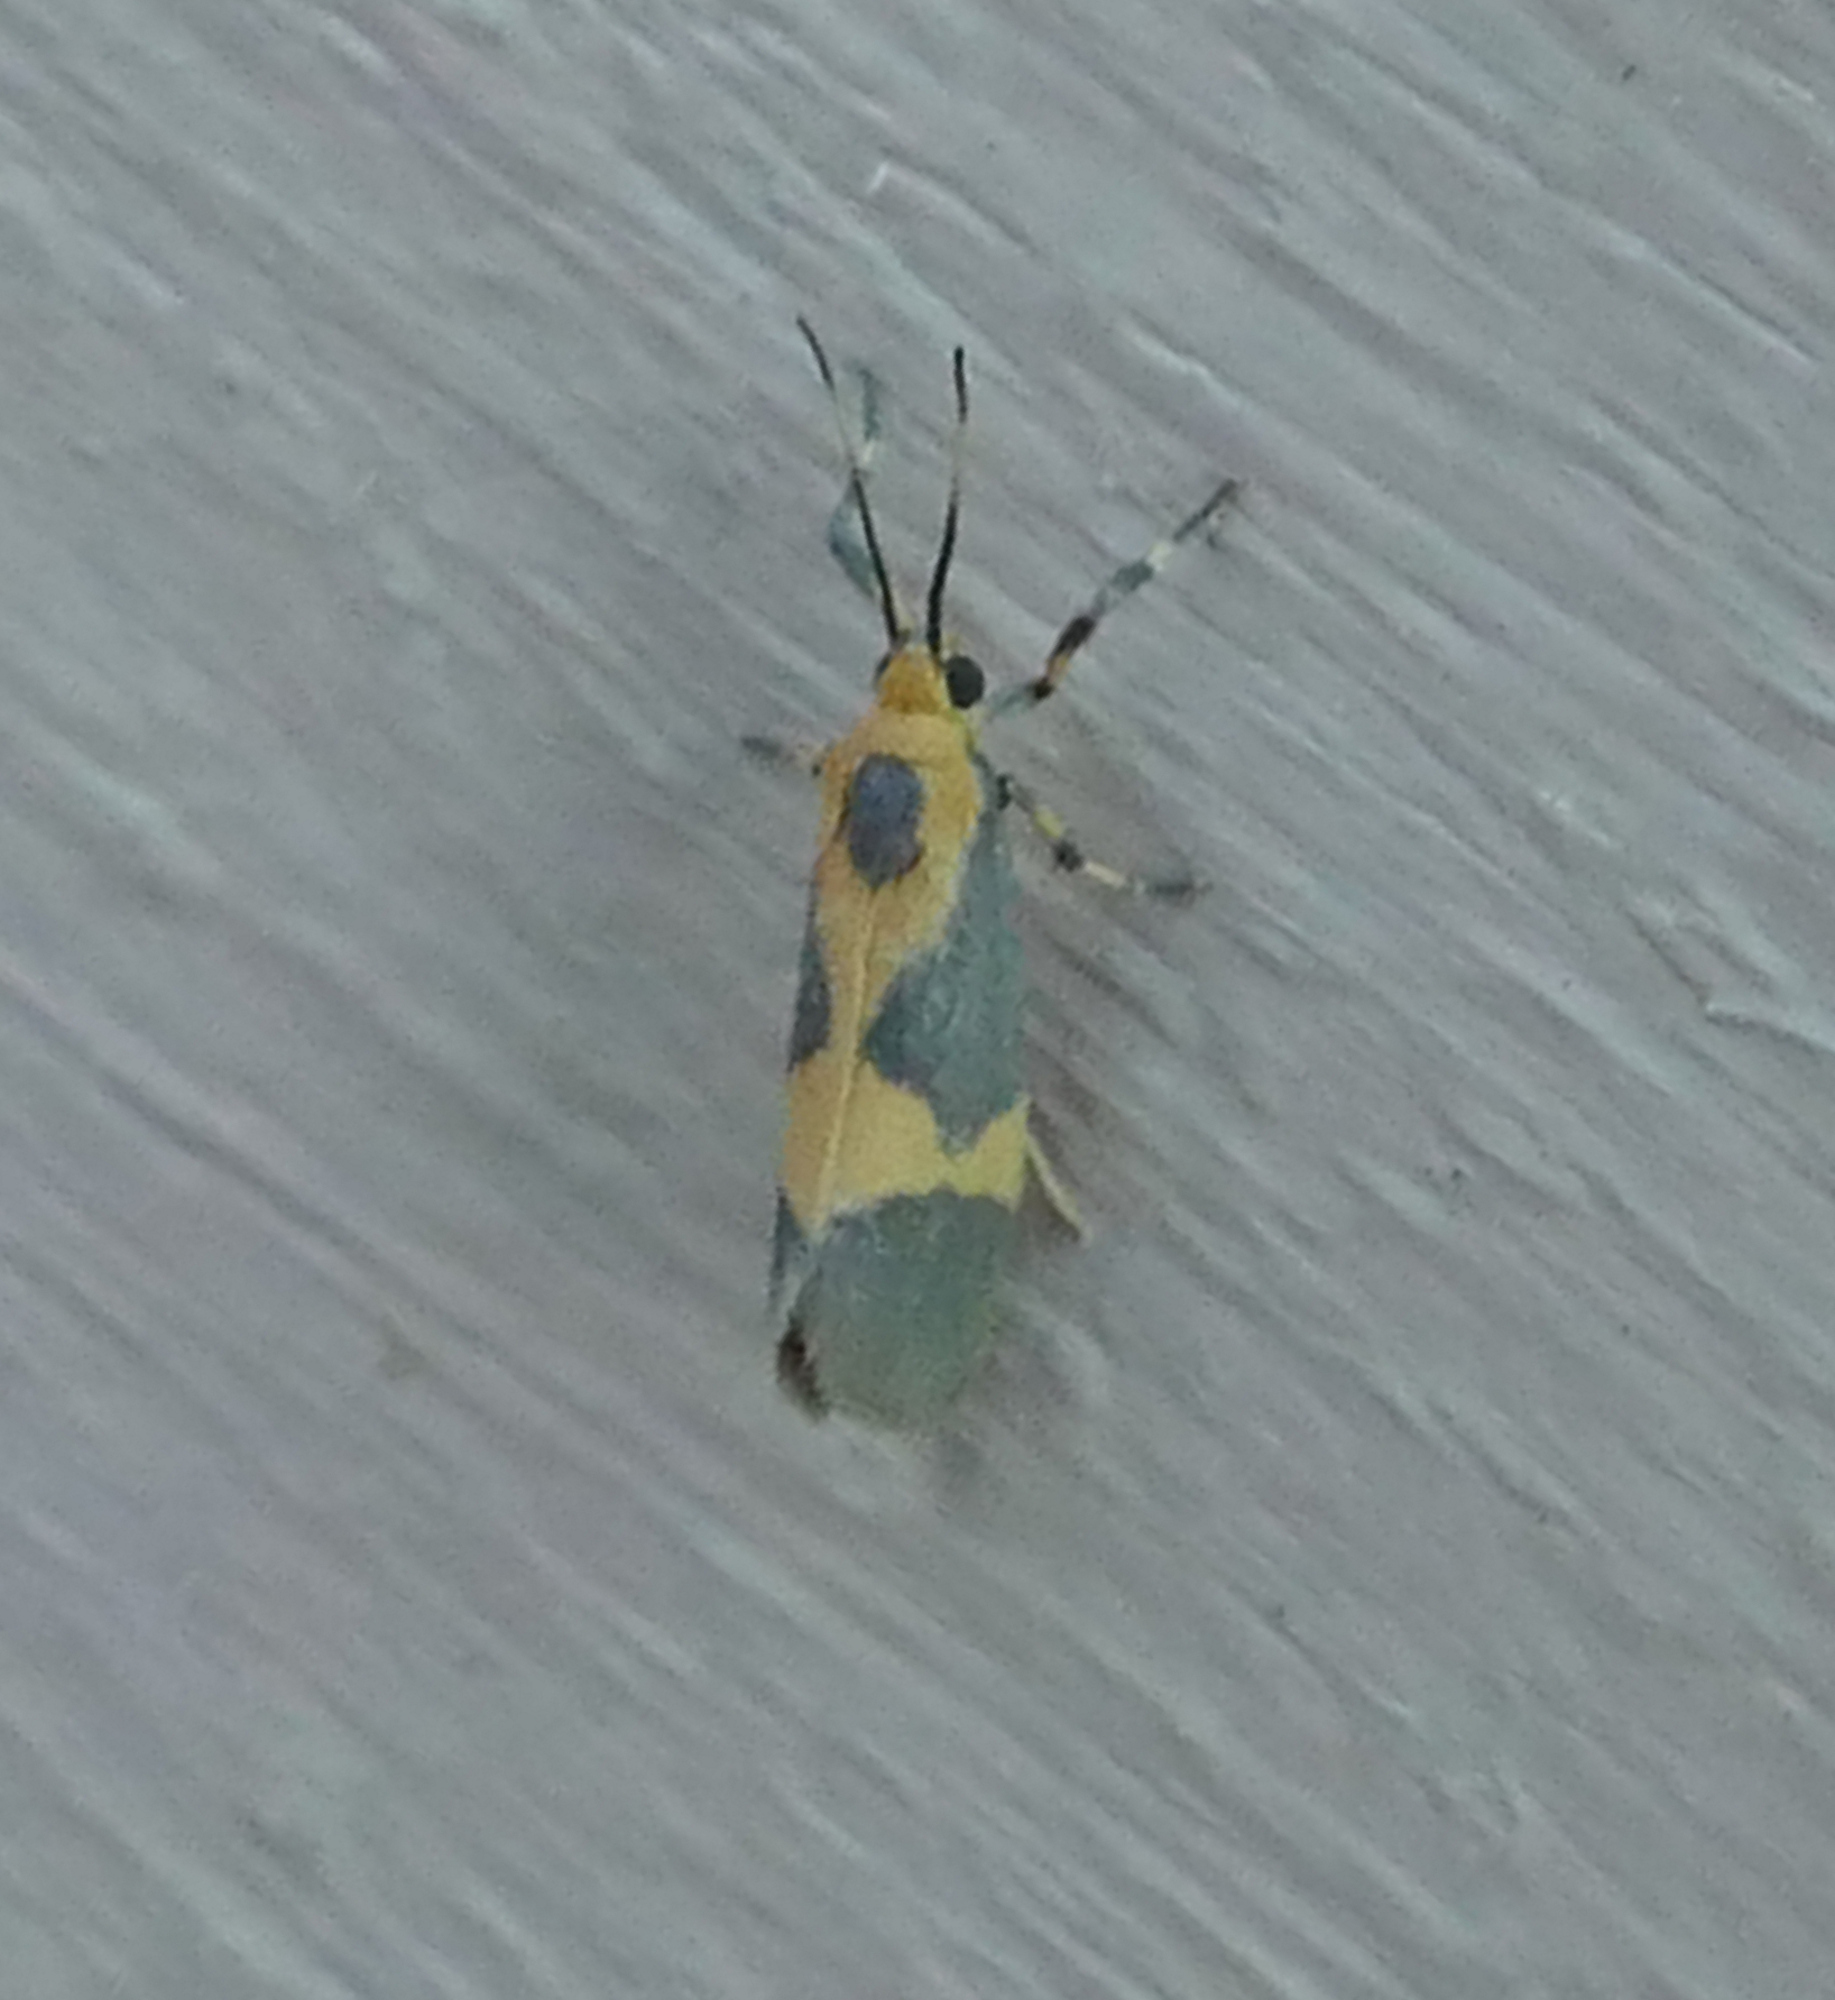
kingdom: Animalia
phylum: Arthropoda
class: Insecta
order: Lepidoptera
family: Erebidae
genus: Cisthene
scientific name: Cisthene unifascia
